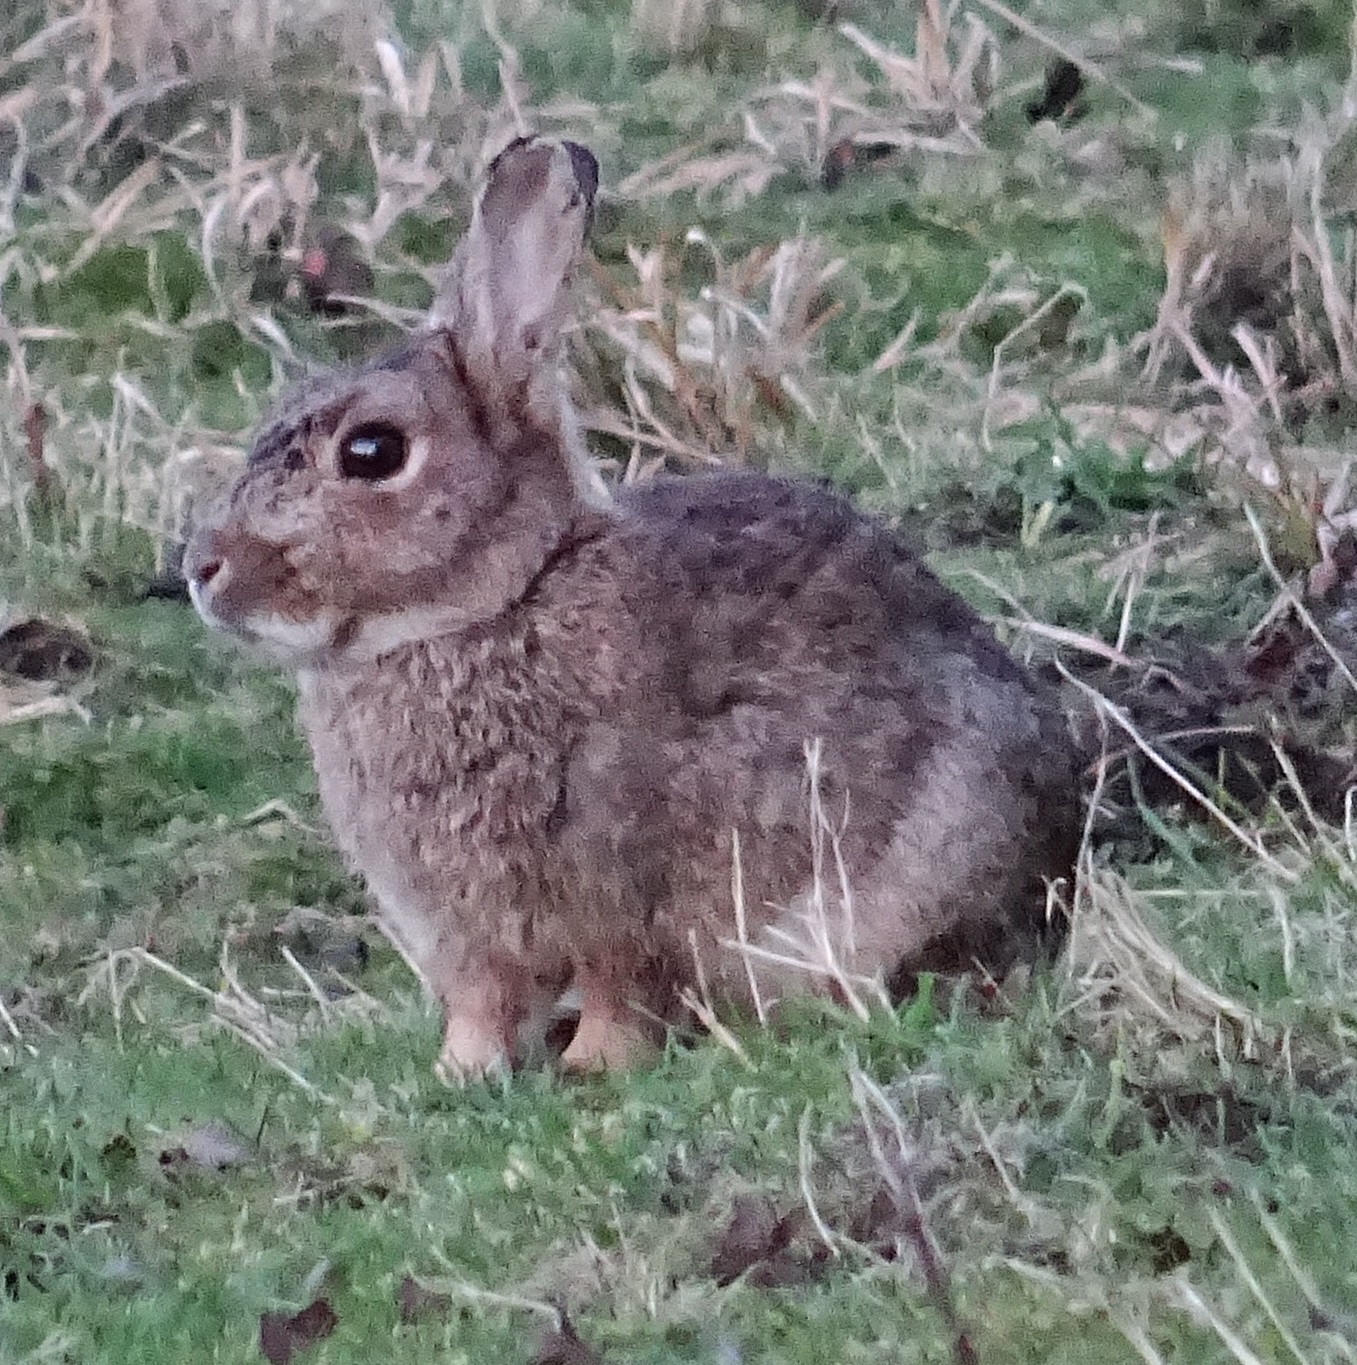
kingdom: Animalia
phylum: Chordata
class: Mammalia
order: Lagomorpha
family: Leporidae
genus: Oryctolagus
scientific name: Oryctolagus cuniculus
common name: European rabbit
